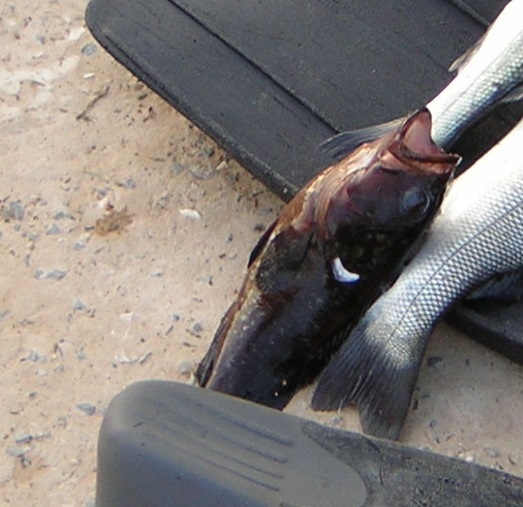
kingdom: Animalia
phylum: Chordata
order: Perciformes
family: Serranidae
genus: Epinephelus
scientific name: Epinephelus marginatus
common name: Dusky grouper
